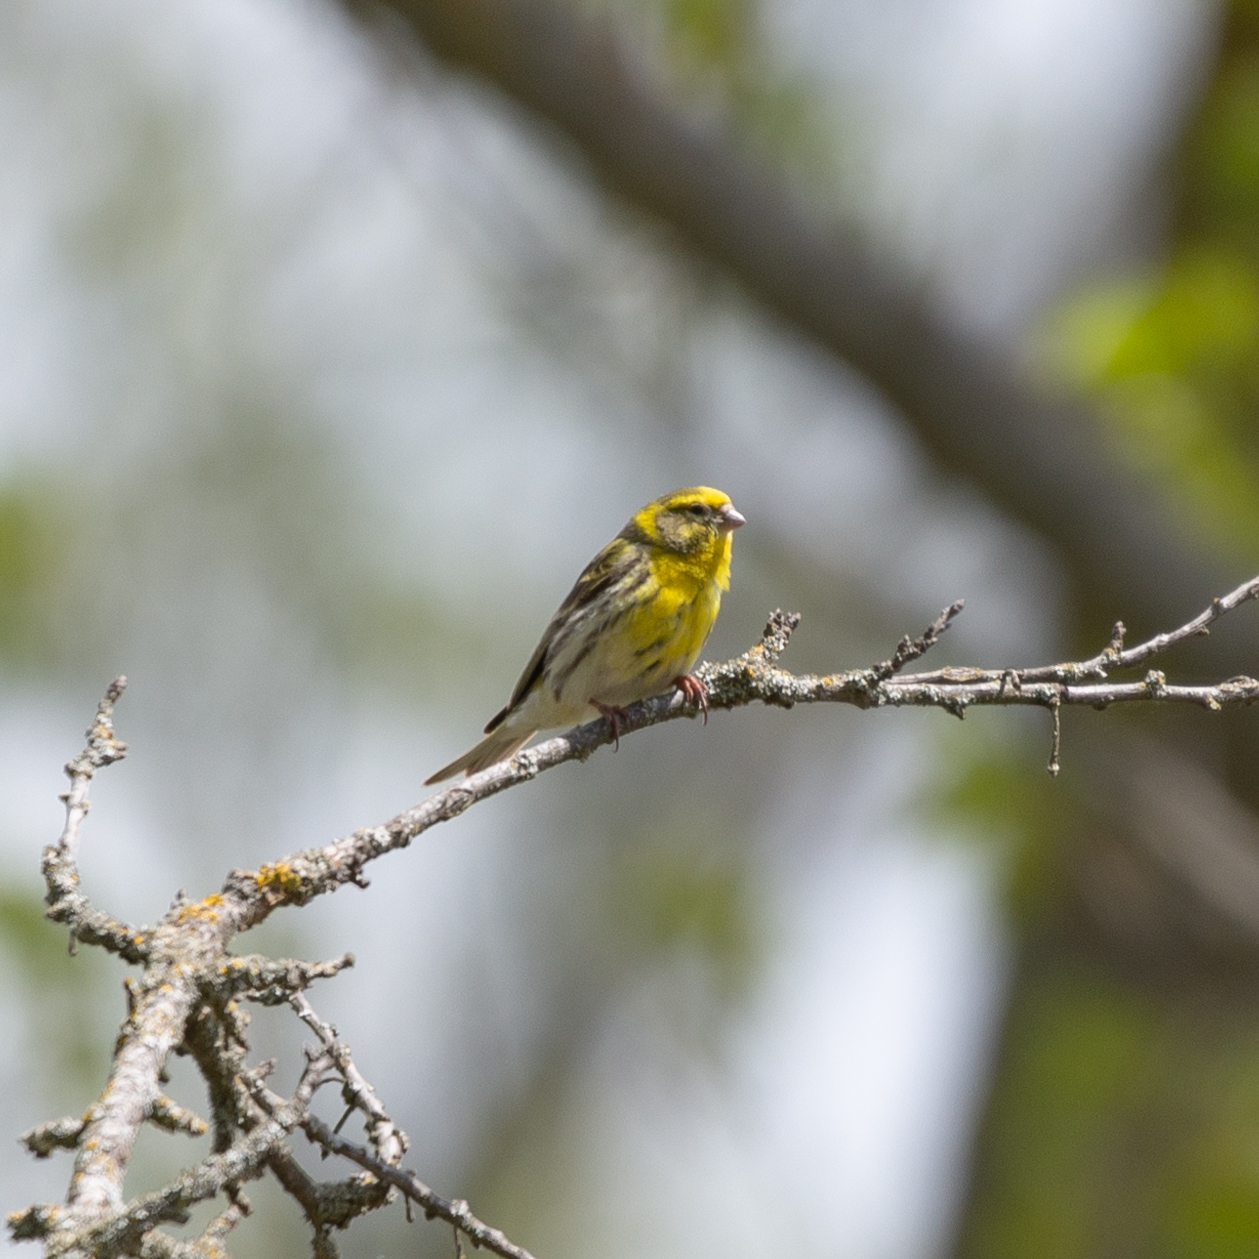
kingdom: Animalia
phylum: Chordata
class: Aves
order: Passeriformes
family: Fringillidae
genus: Serinus
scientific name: Serinus serinus
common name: European serin
